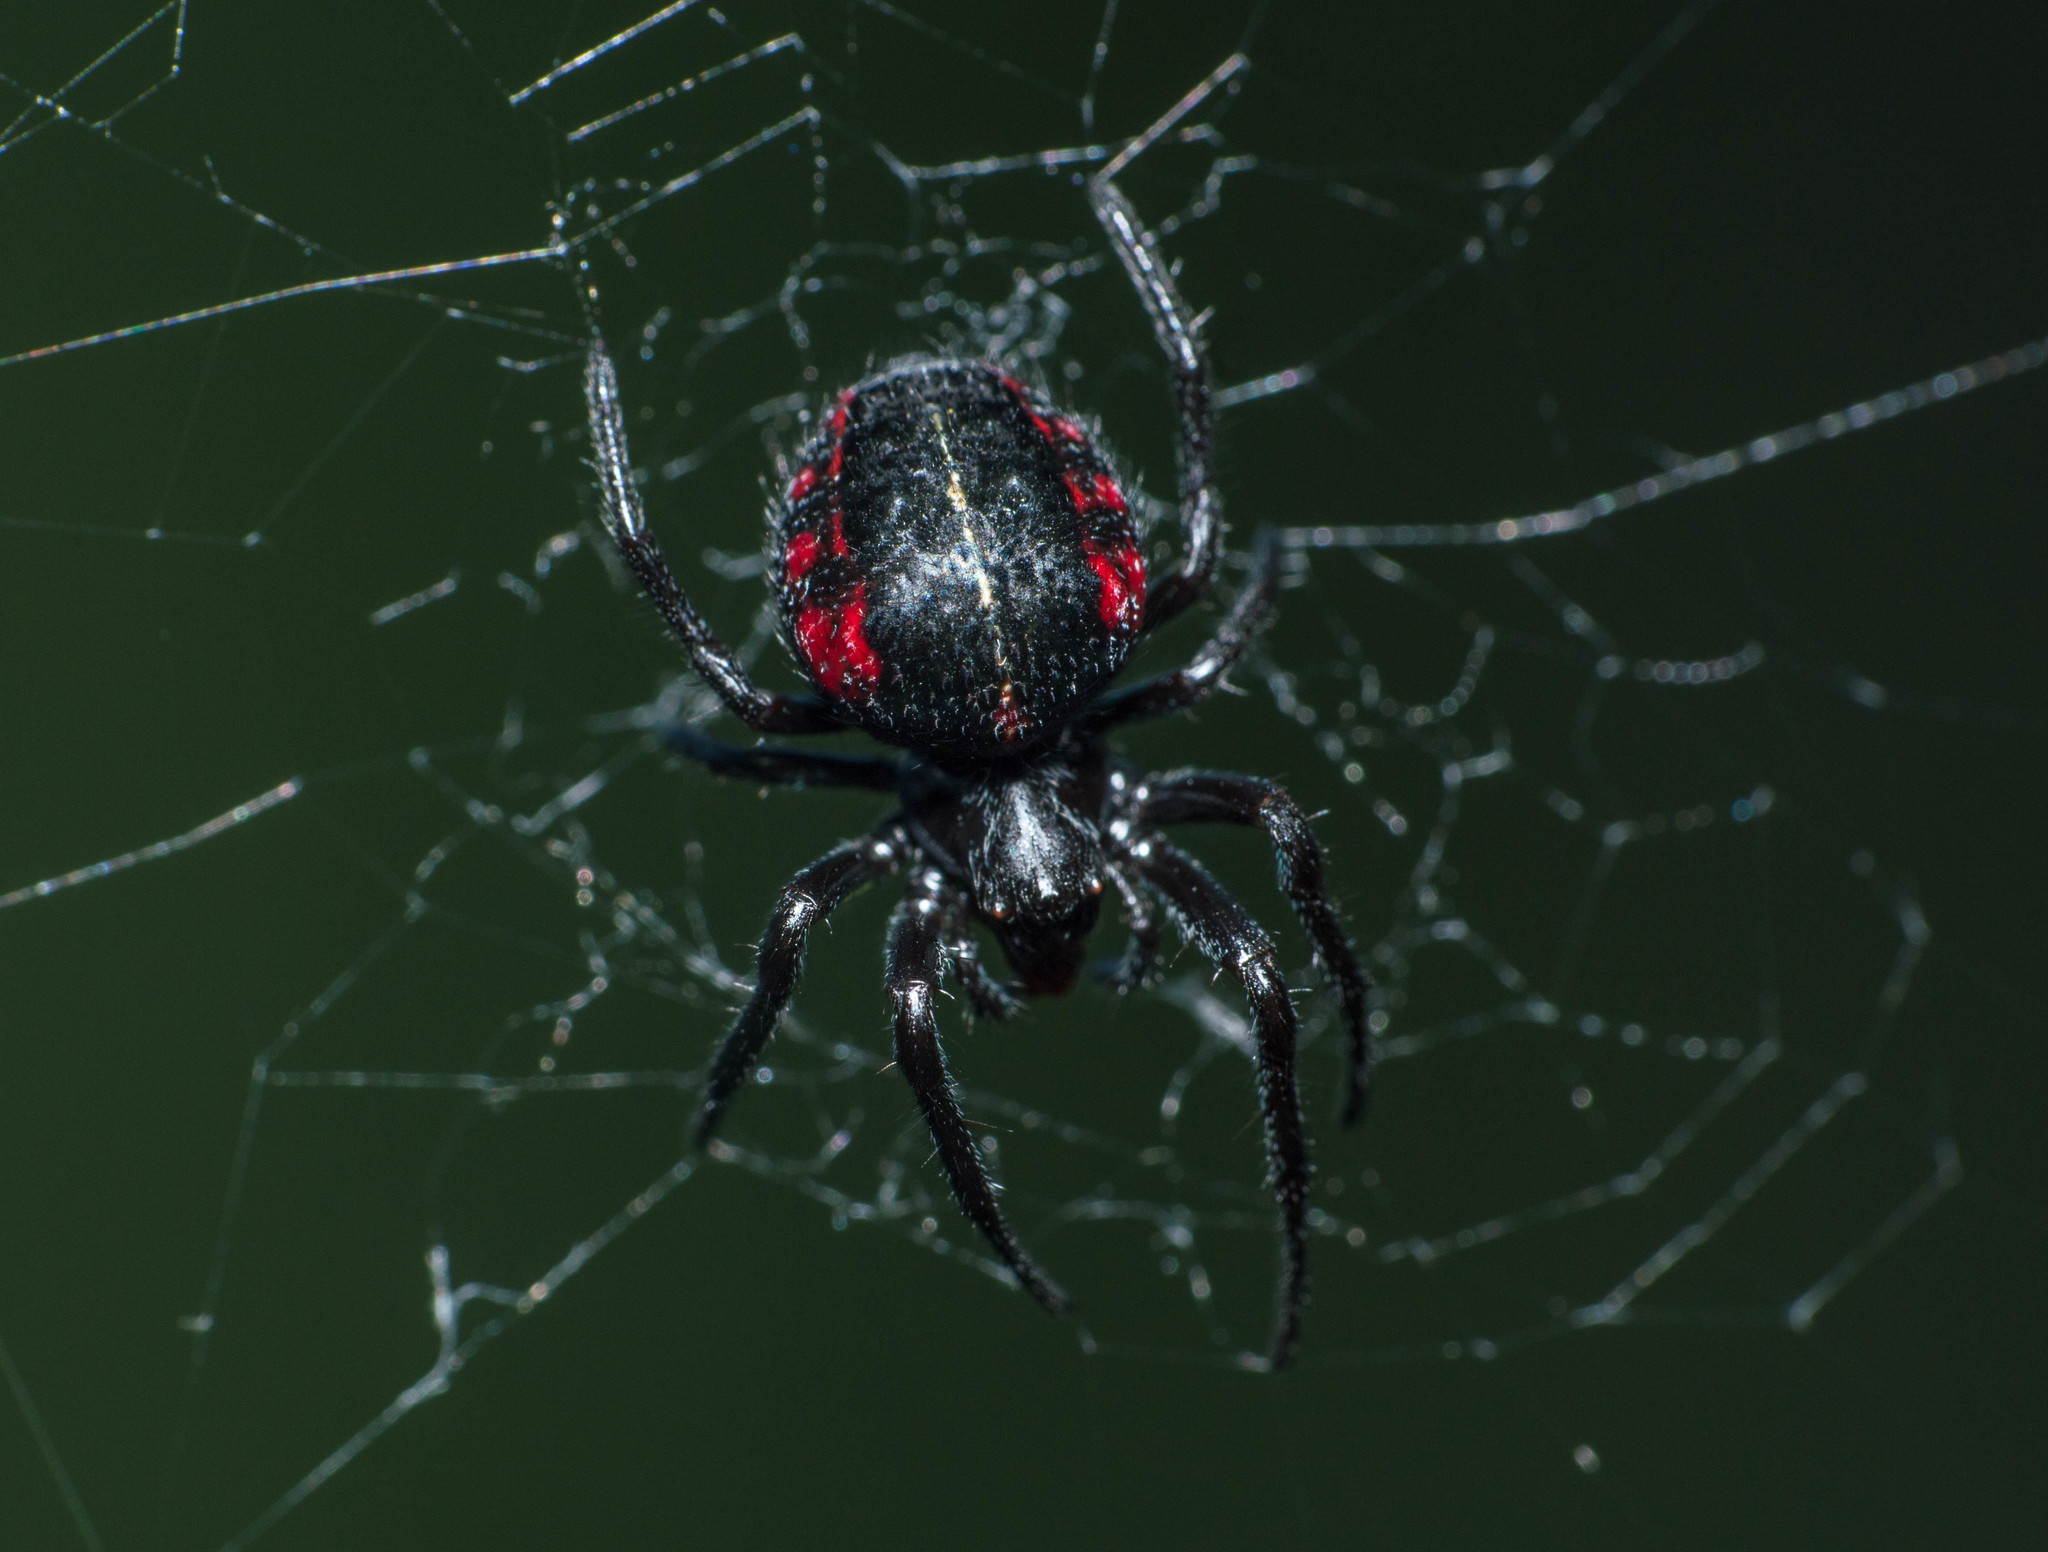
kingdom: Animalia
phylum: Arthropoda
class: Arachnida
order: Araneae
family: Araneidae
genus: Parawixia
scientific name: Parawixia bistriata
